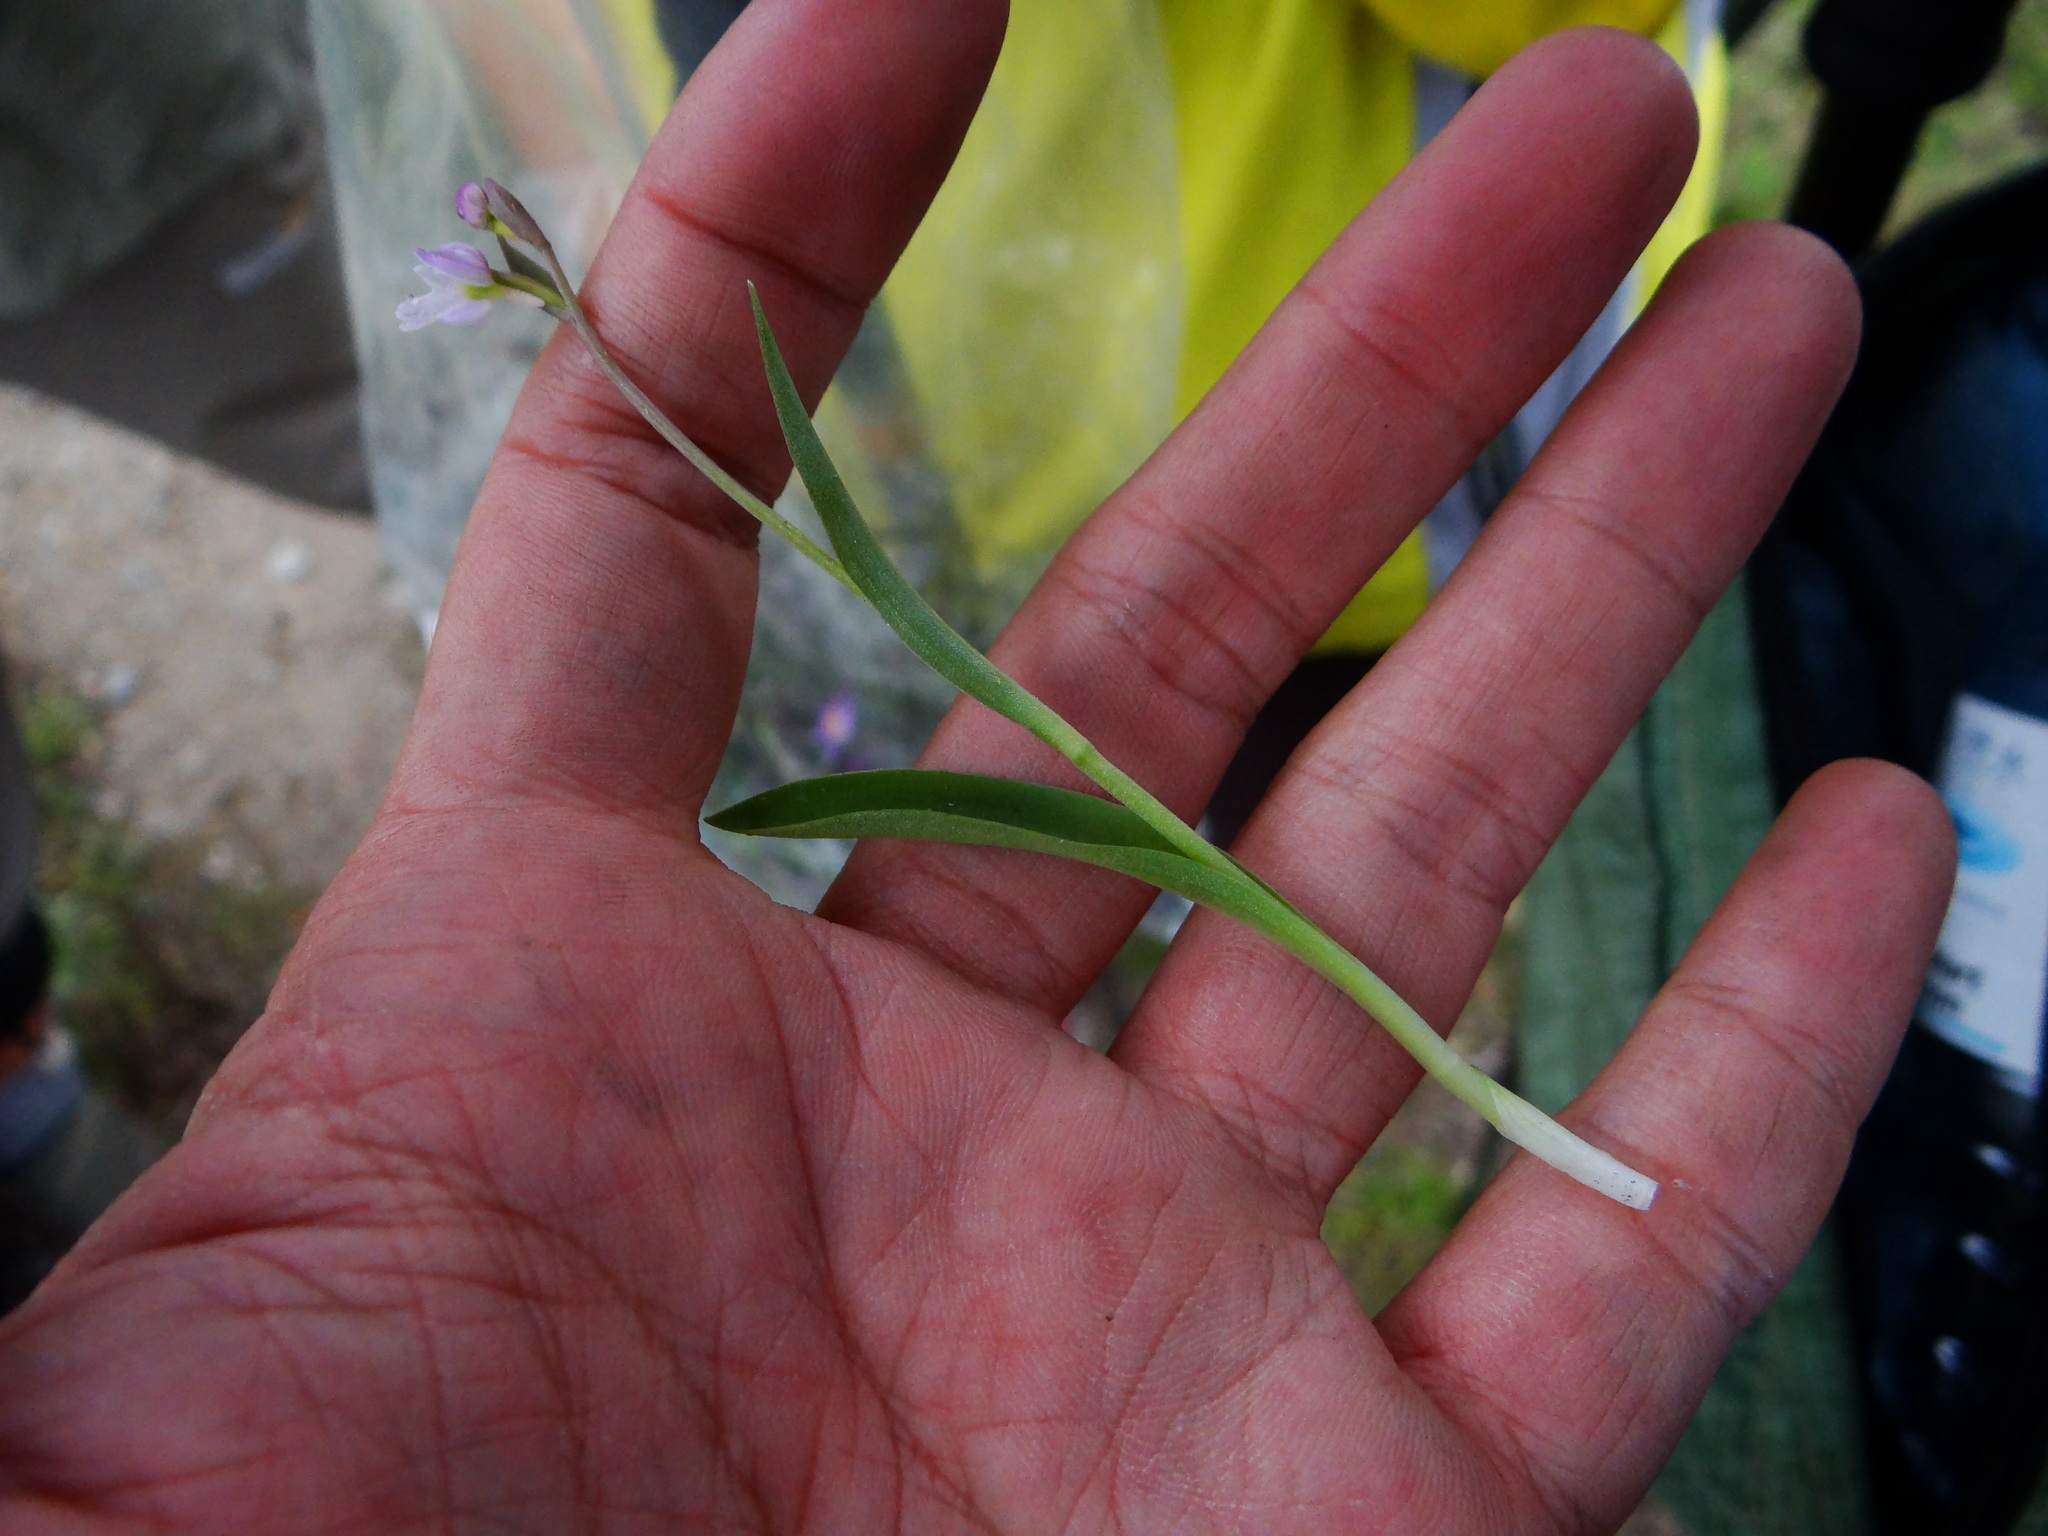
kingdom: Plantae
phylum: Tracheophyta
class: Liliopsida
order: Asparagales
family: Orchidaceae
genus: Hemipilia
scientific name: Hemipilia alpestris
